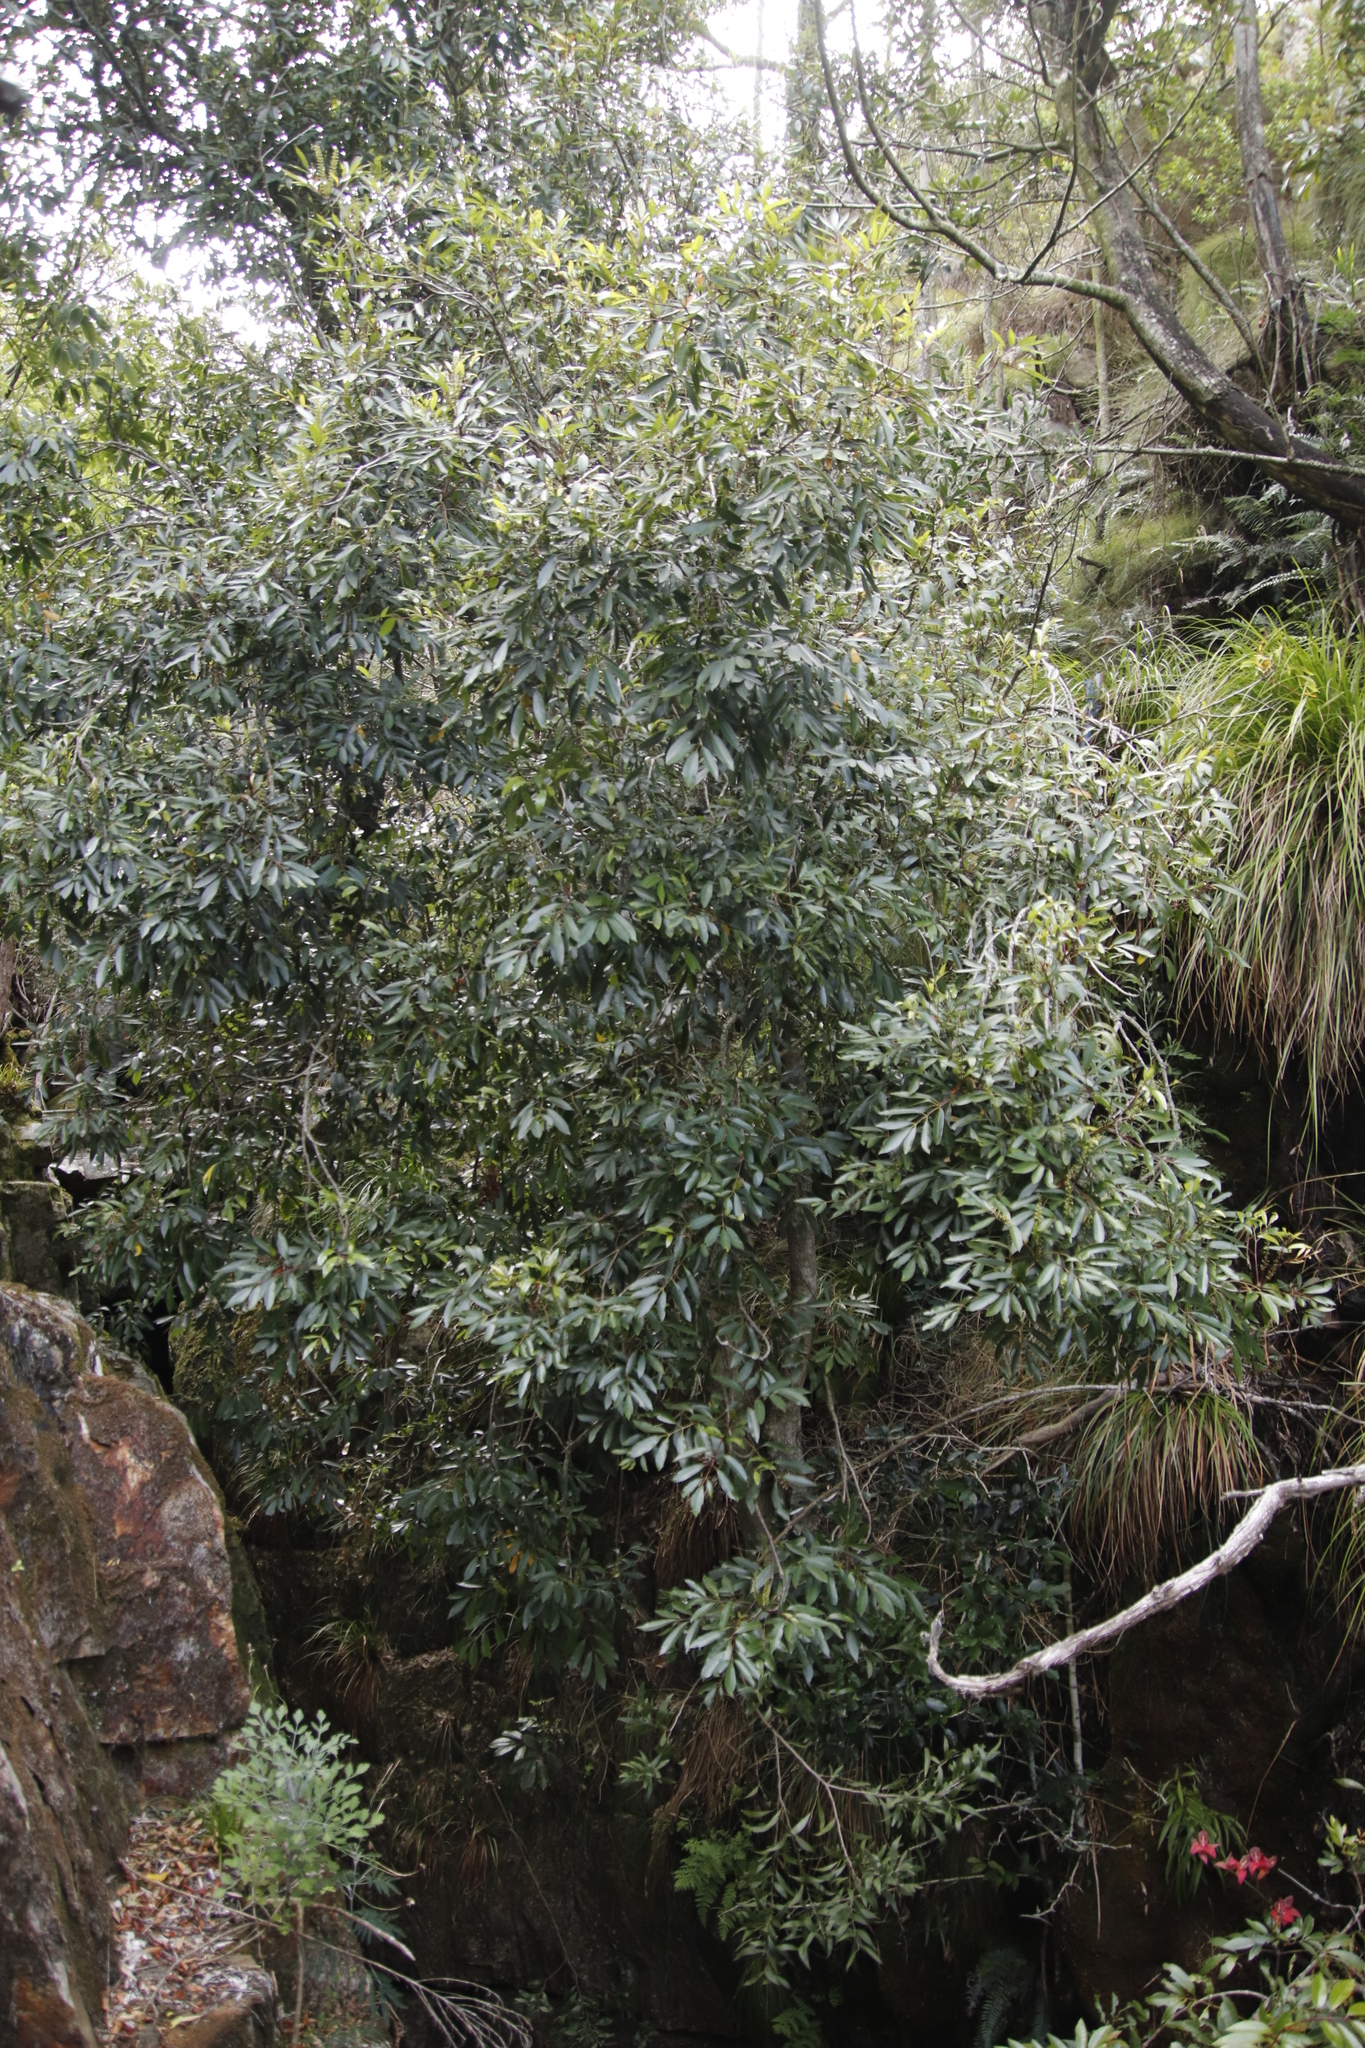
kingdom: Plantae
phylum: Tracheophyta
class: Magnoliopsida
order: Oxalidales
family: Cunoniaceae
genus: Cunonia
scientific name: Cunonia capensis
